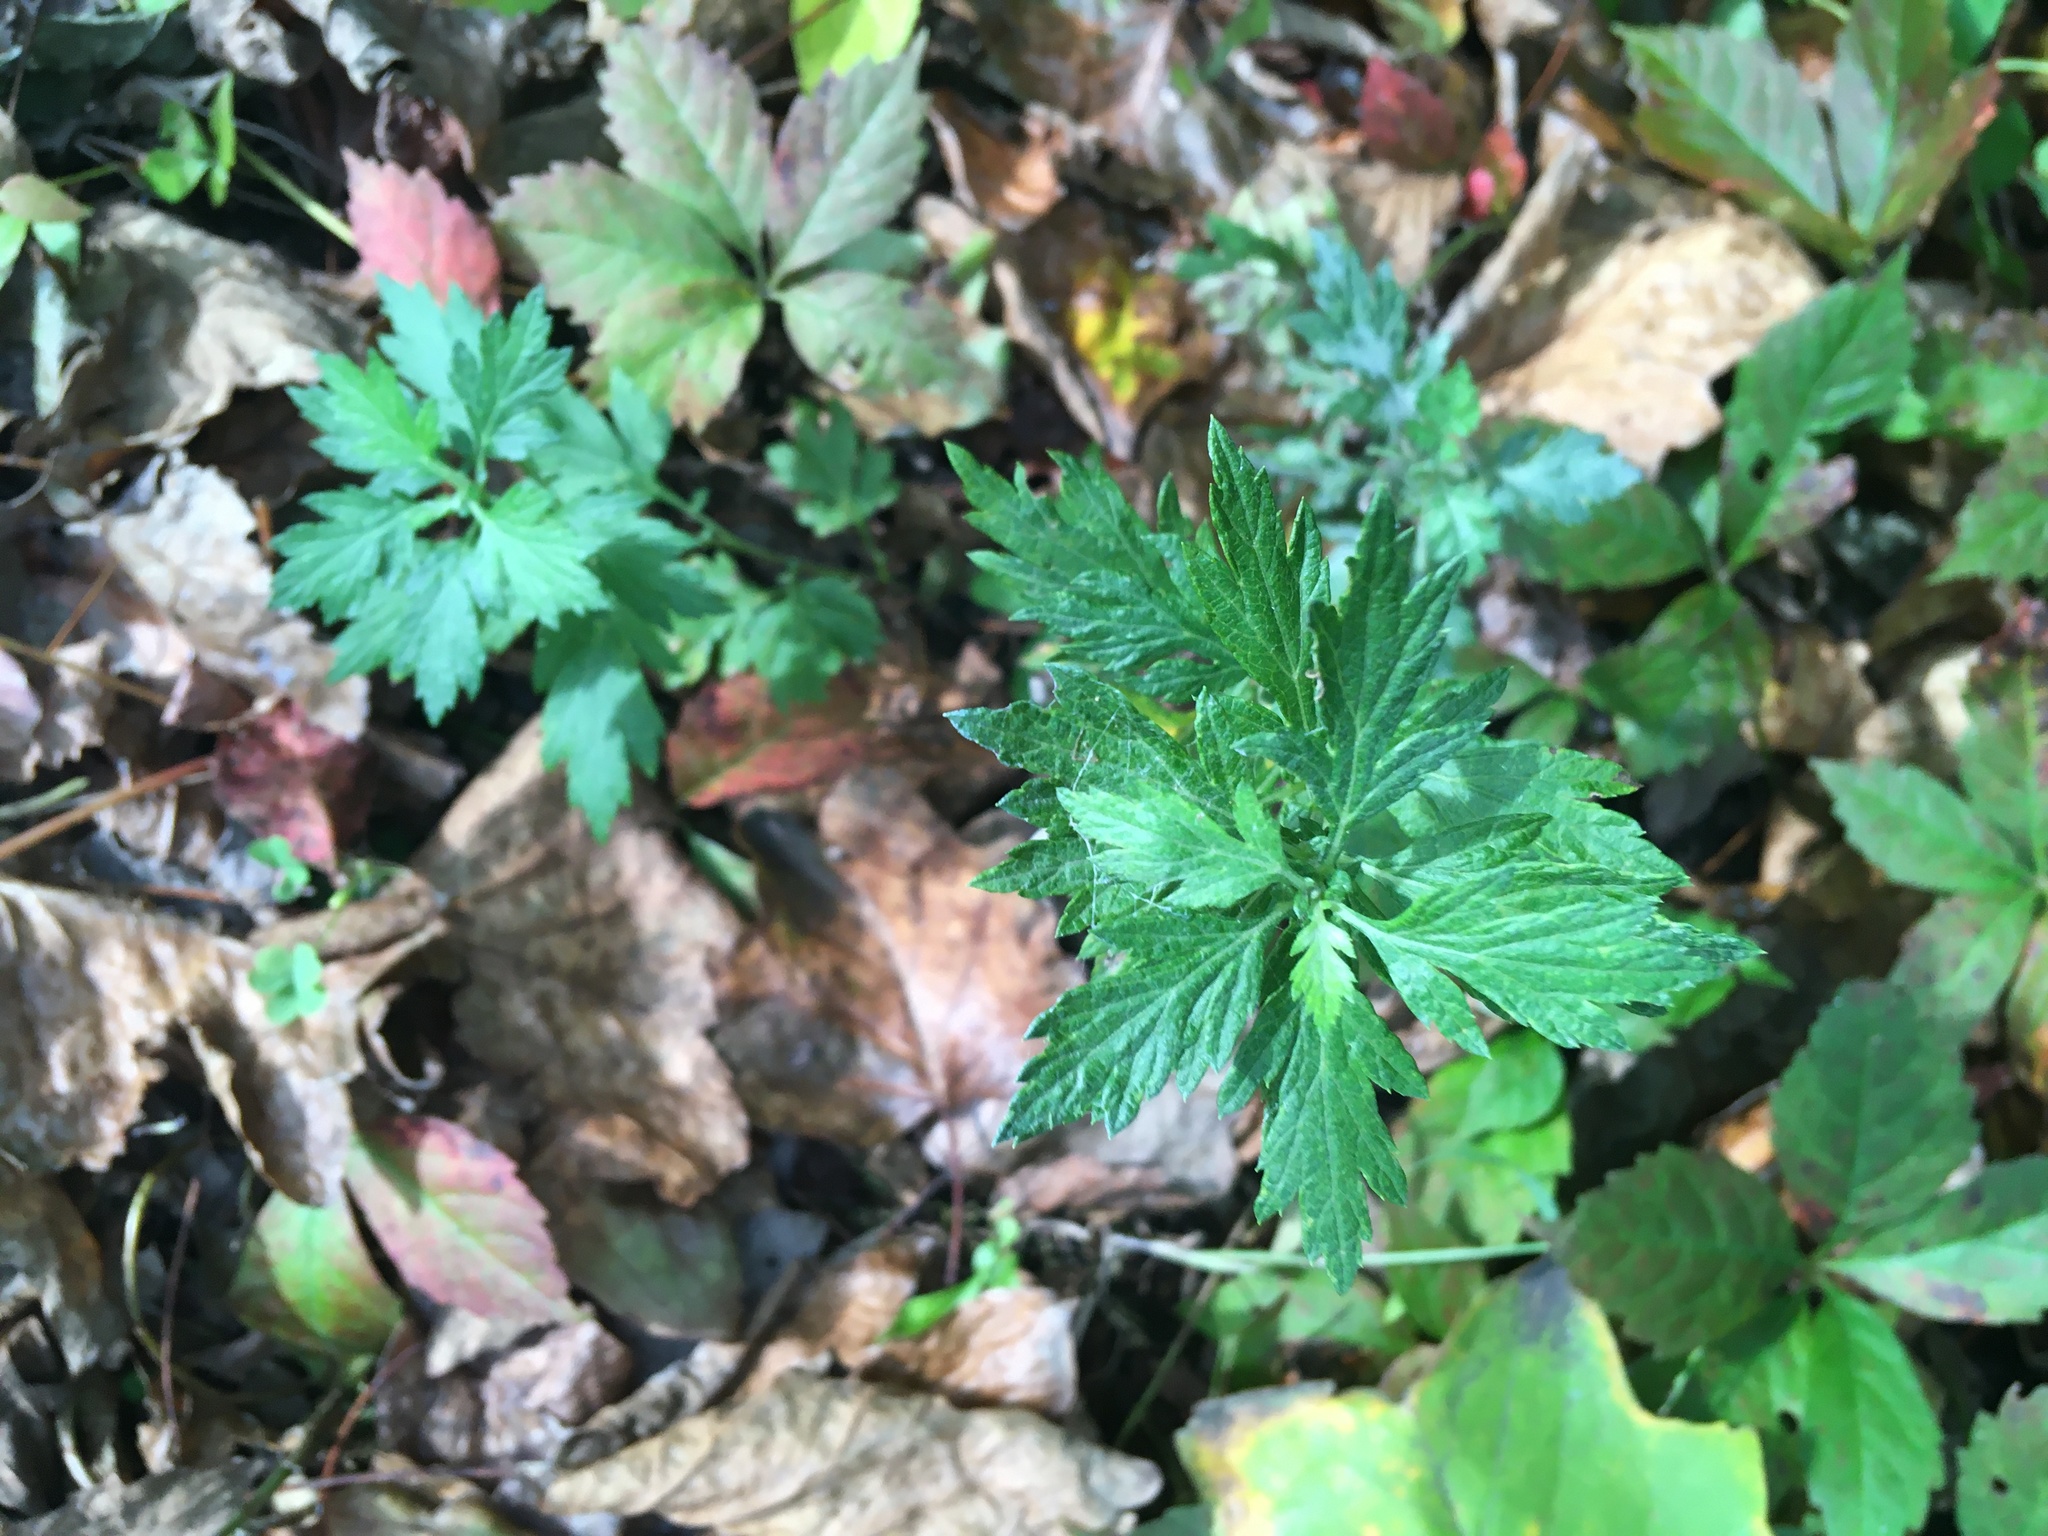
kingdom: Plantae
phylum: Tracheophyta
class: Magnoliopsida
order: Asterales
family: Asteraceae
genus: Artemisia
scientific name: Artemisia vulgaris
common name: Mugwort
